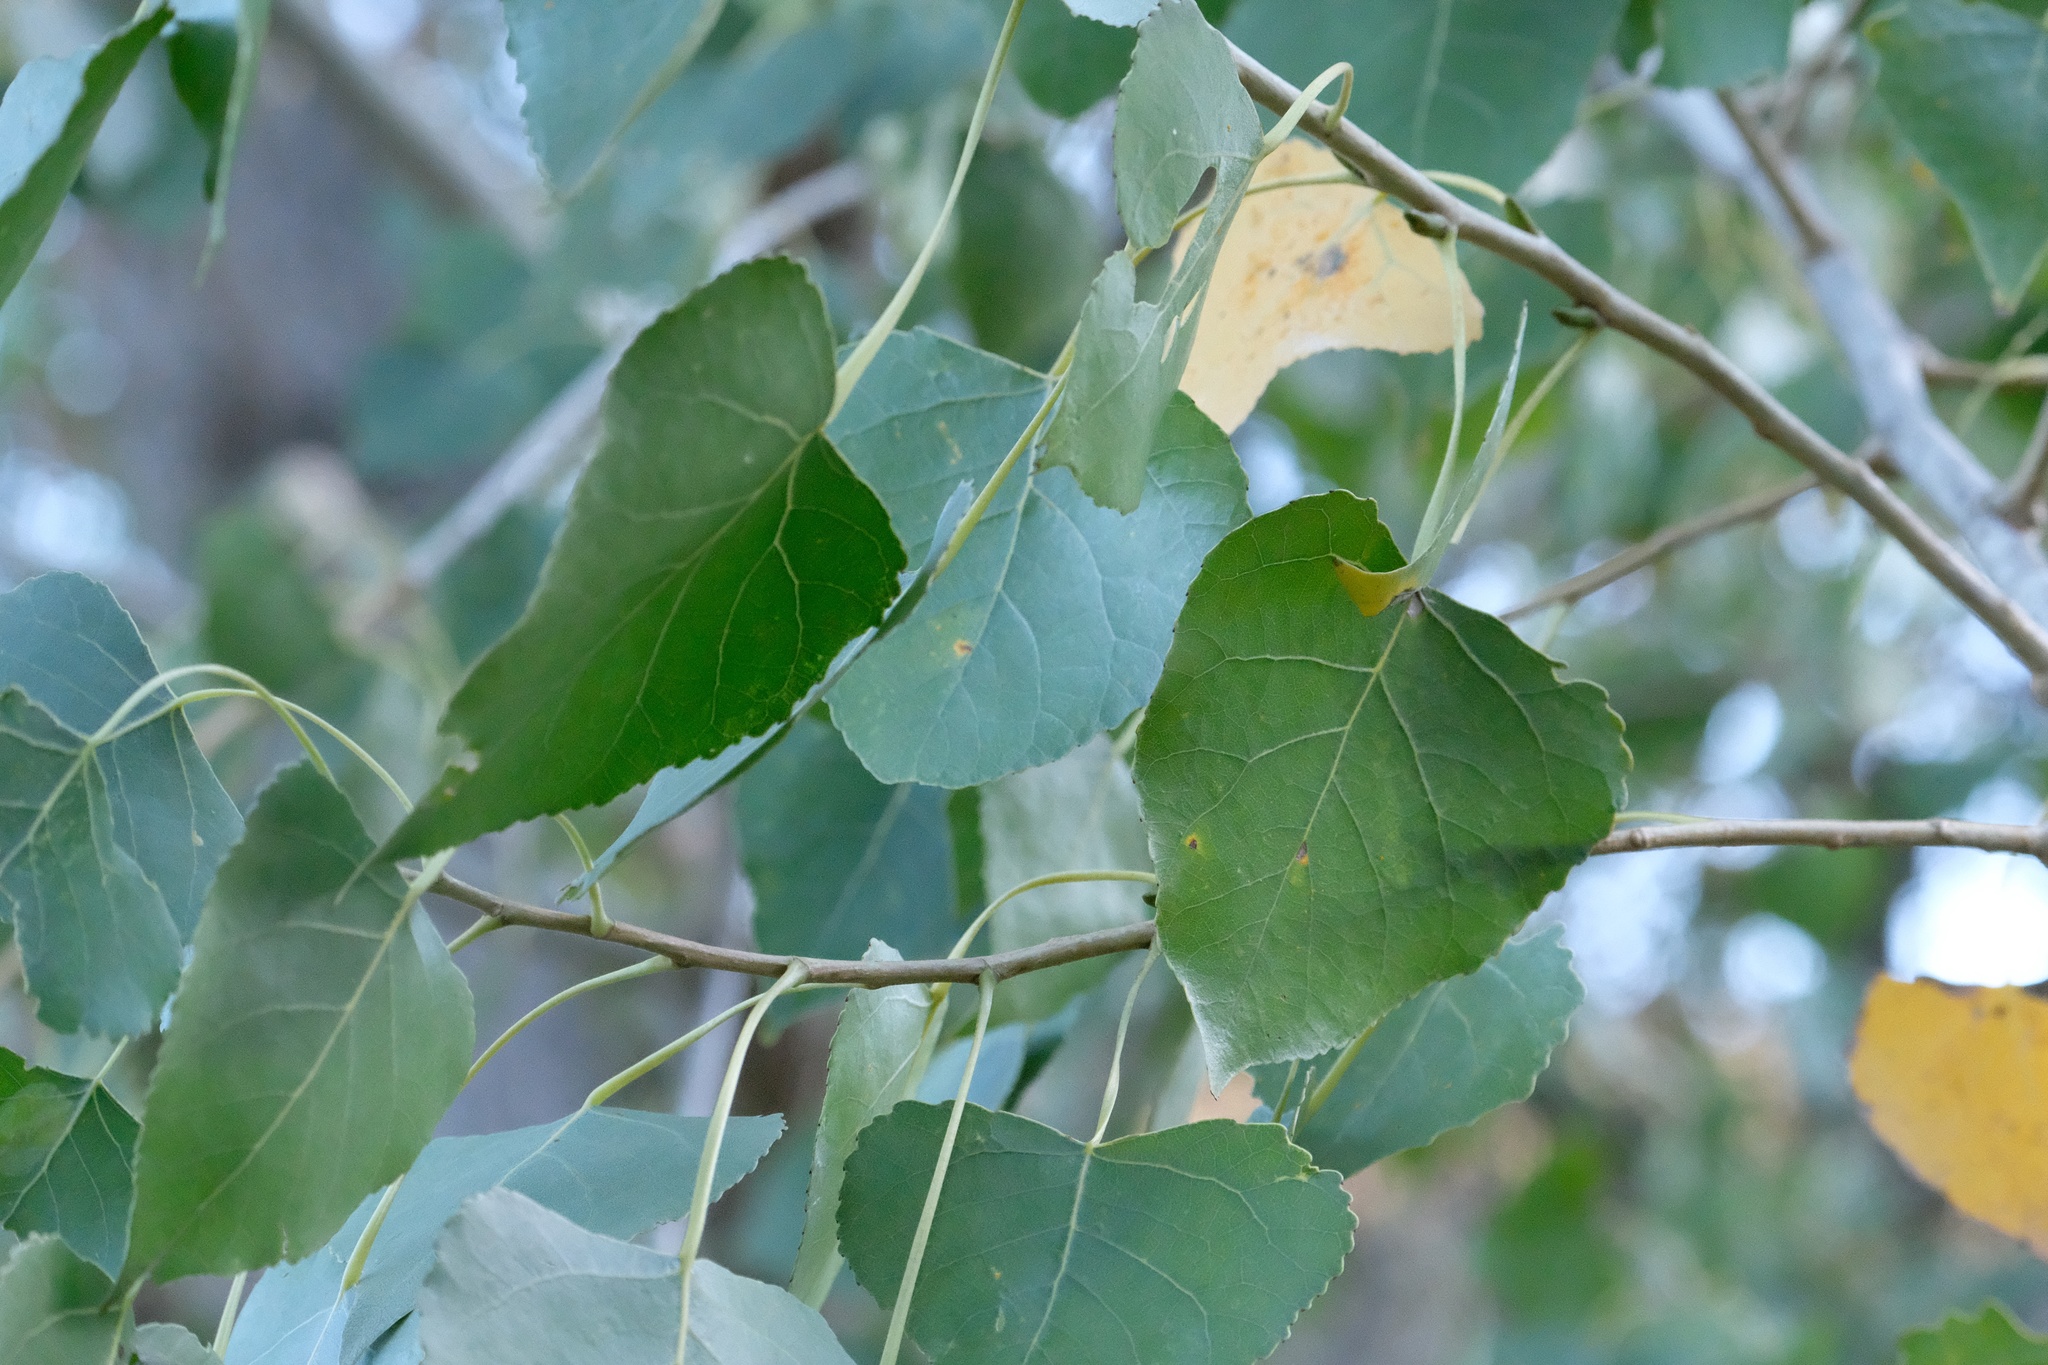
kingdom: Plantae
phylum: Tracheophyta
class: Magnoliopsida
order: Malpighiales
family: Salicaceae
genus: Populus
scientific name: Populus fremontii
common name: Fremont's cottonwood
